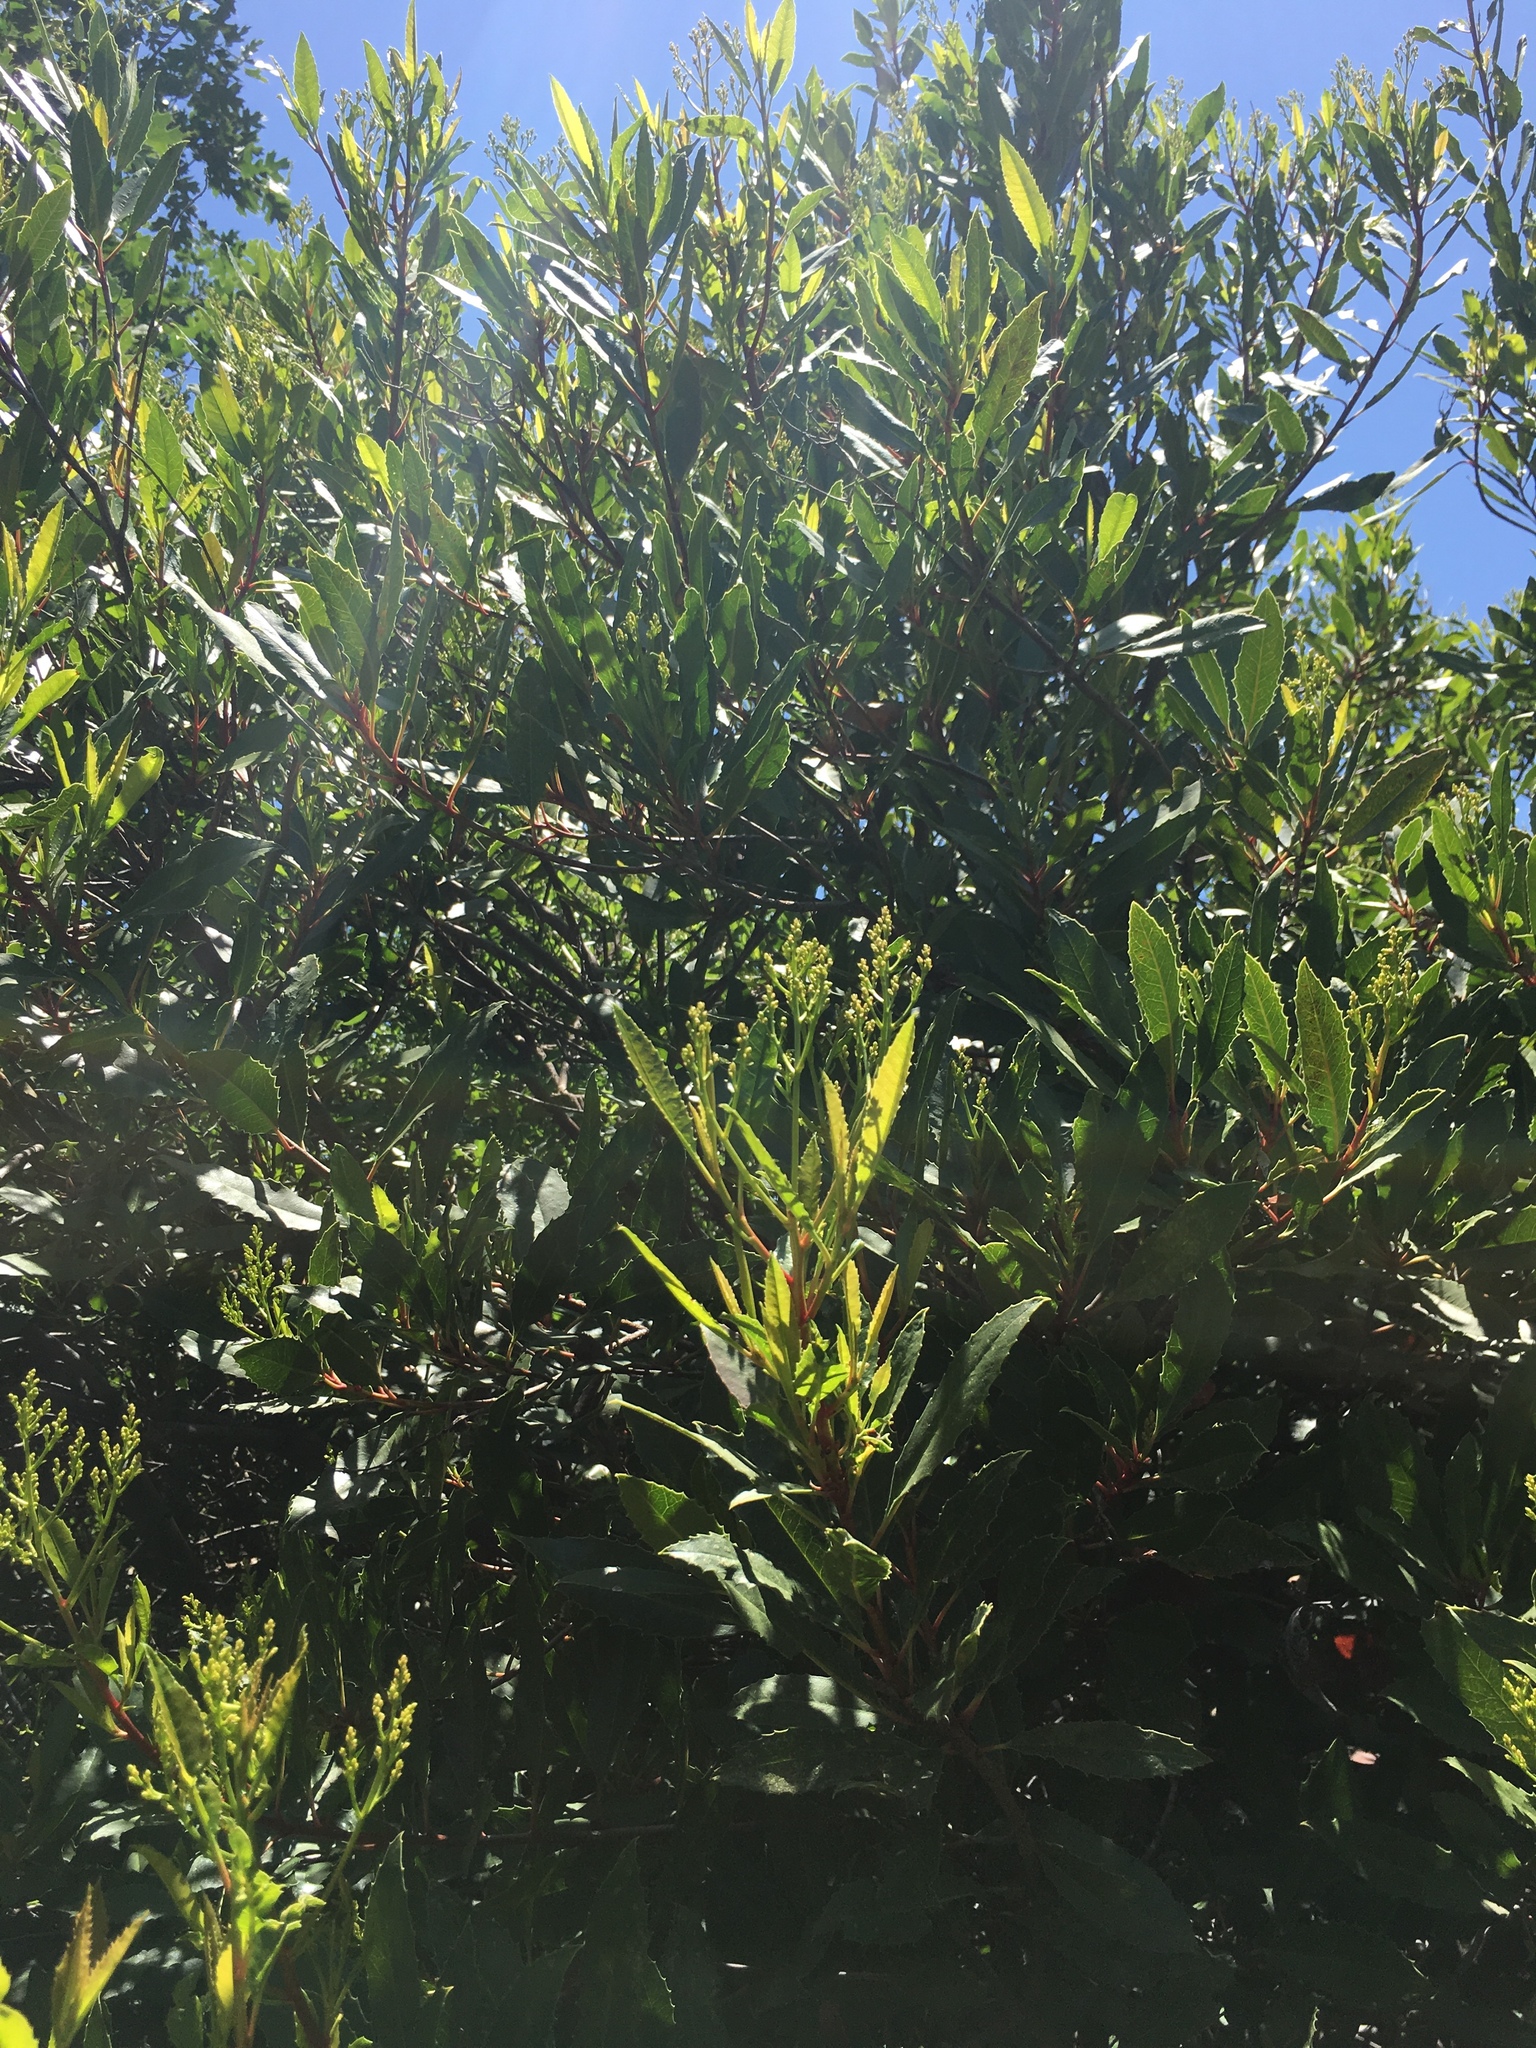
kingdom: Plantae
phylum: Tracheophyta
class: Magnoliopsida
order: Rosales
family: Rosaceae
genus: Heteromeles
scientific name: Heteromeles arbutifolia
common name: California-holly
